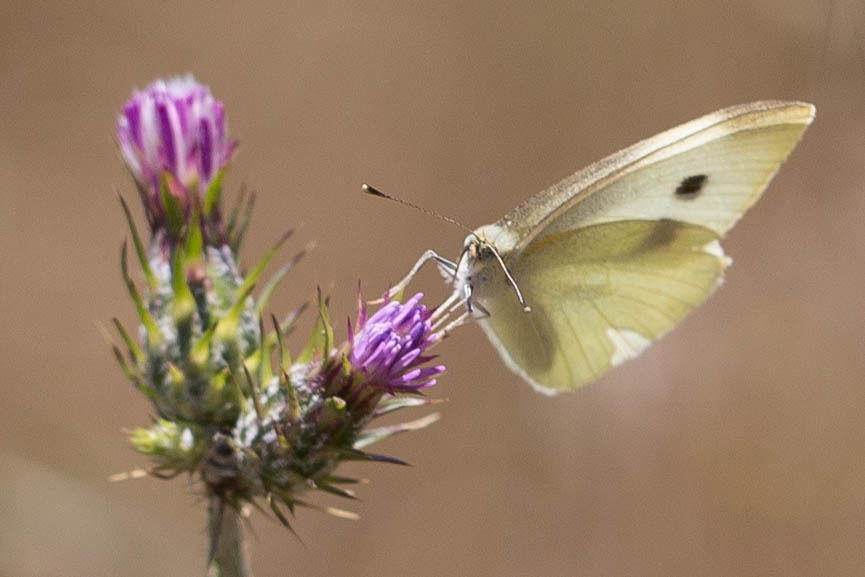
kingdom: Animalia
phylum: Arthropoda
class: Insecta
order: Lepidoptera
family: Pieridae
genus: Pieris
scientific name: Pieris rapae
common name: Small white
